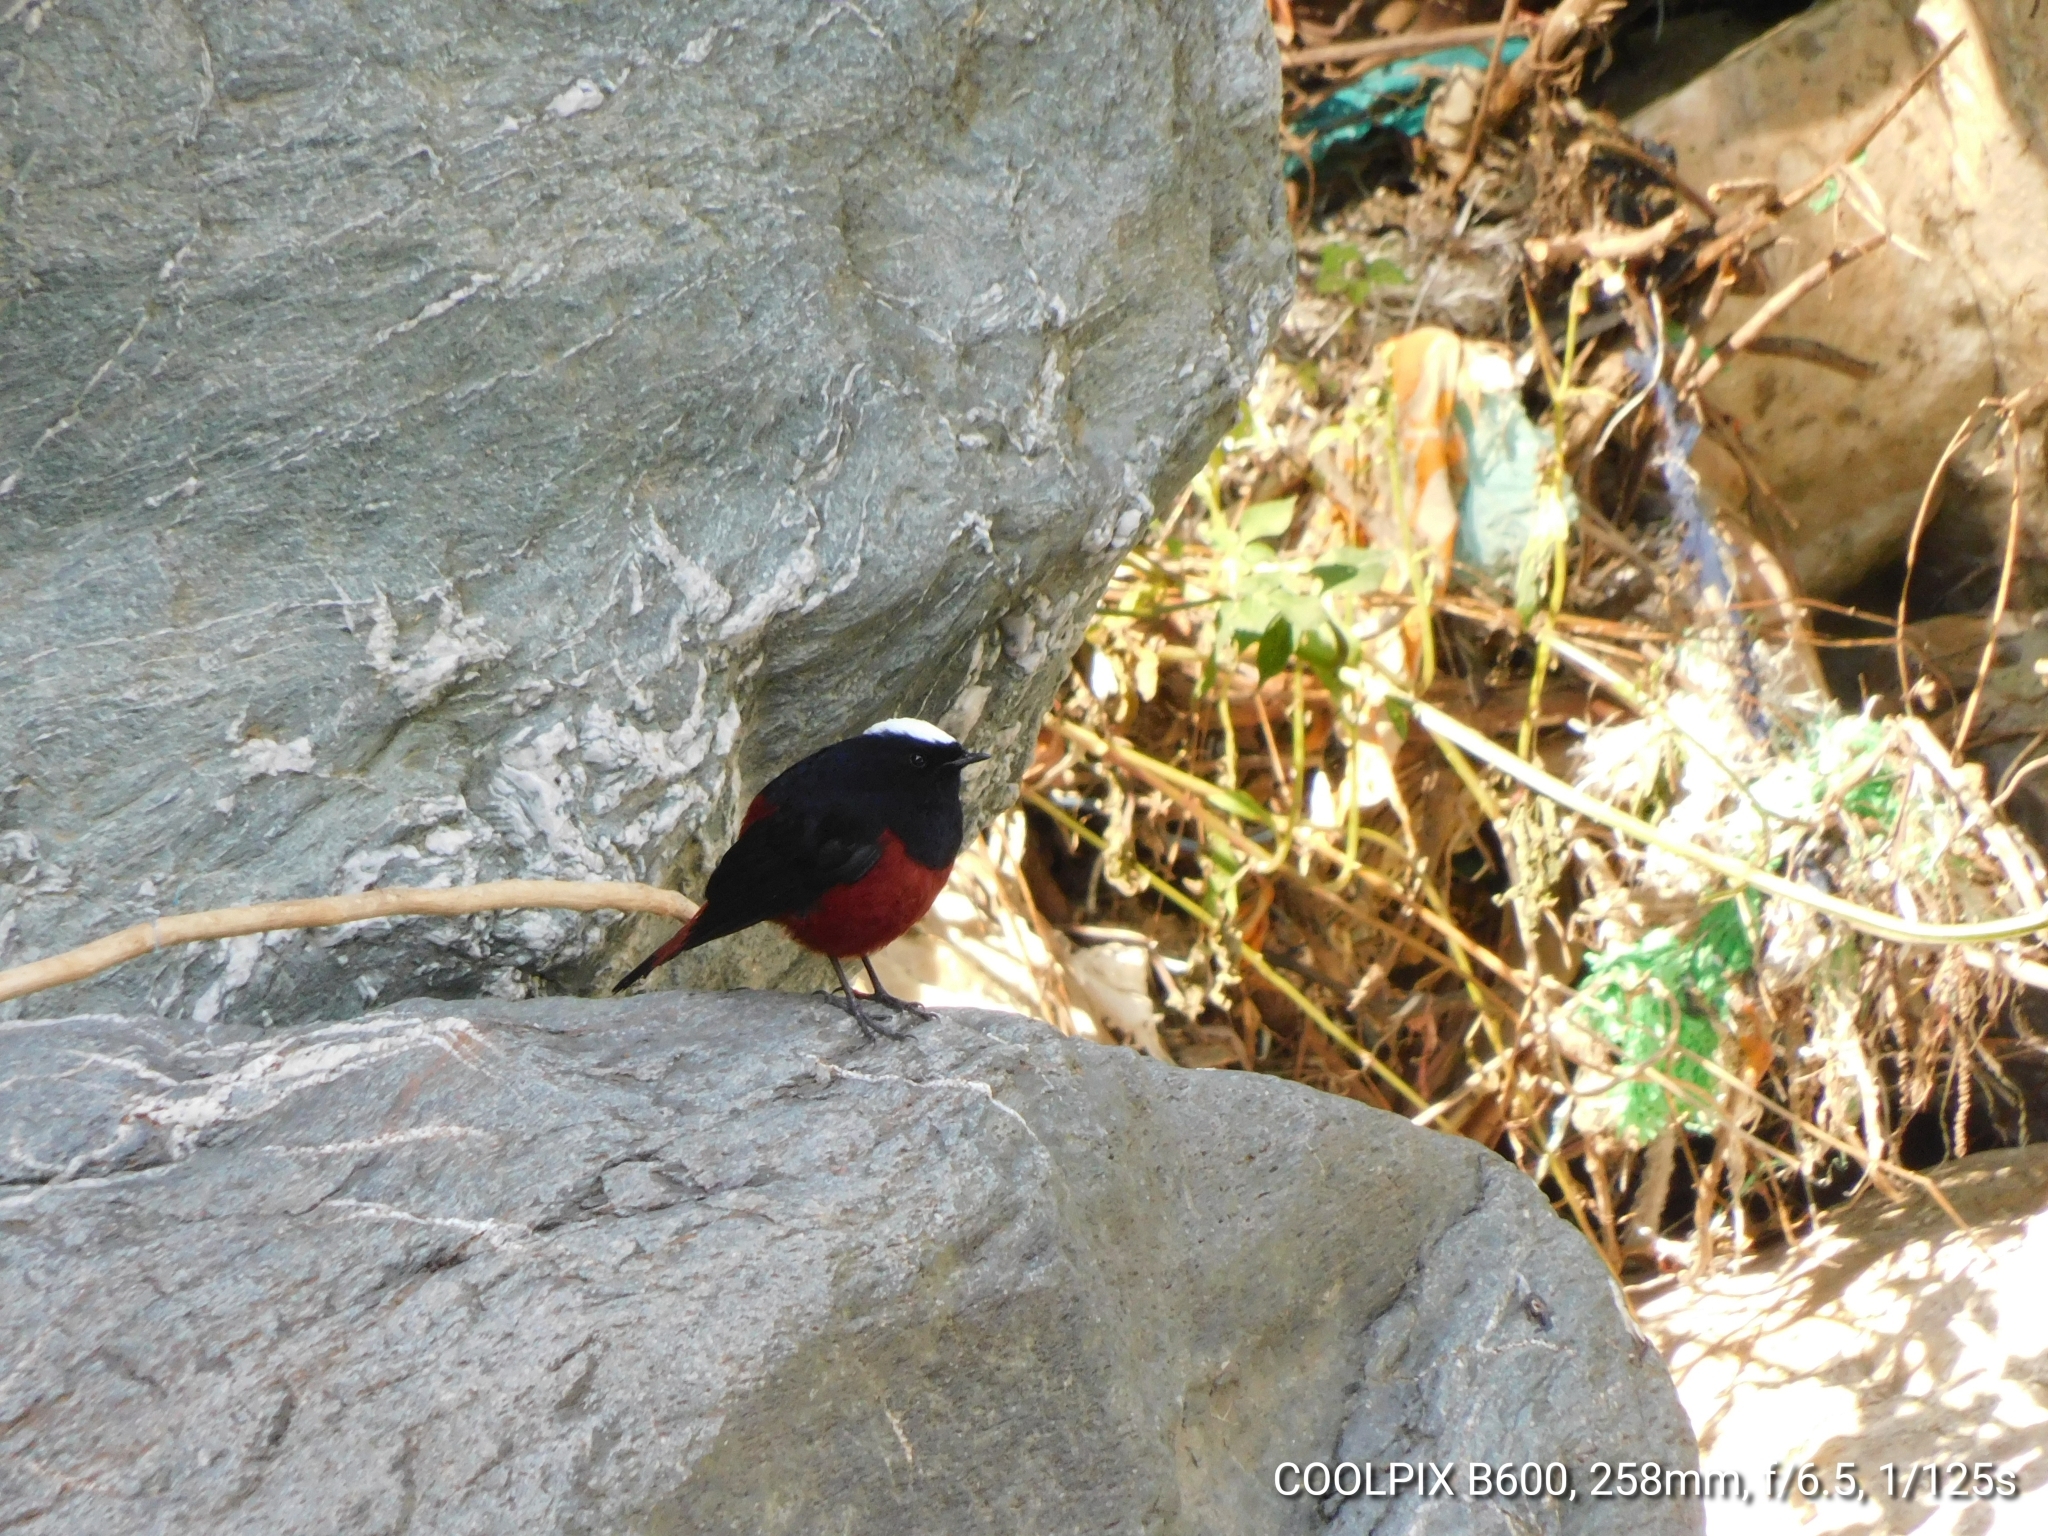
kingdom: Animalia
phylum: Chordata
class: Aves
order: Passeriformes
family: Muscicapidae
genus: Chaimarrornis
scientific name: Chaimarrornis leucocephalus
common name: White-capped redstart
